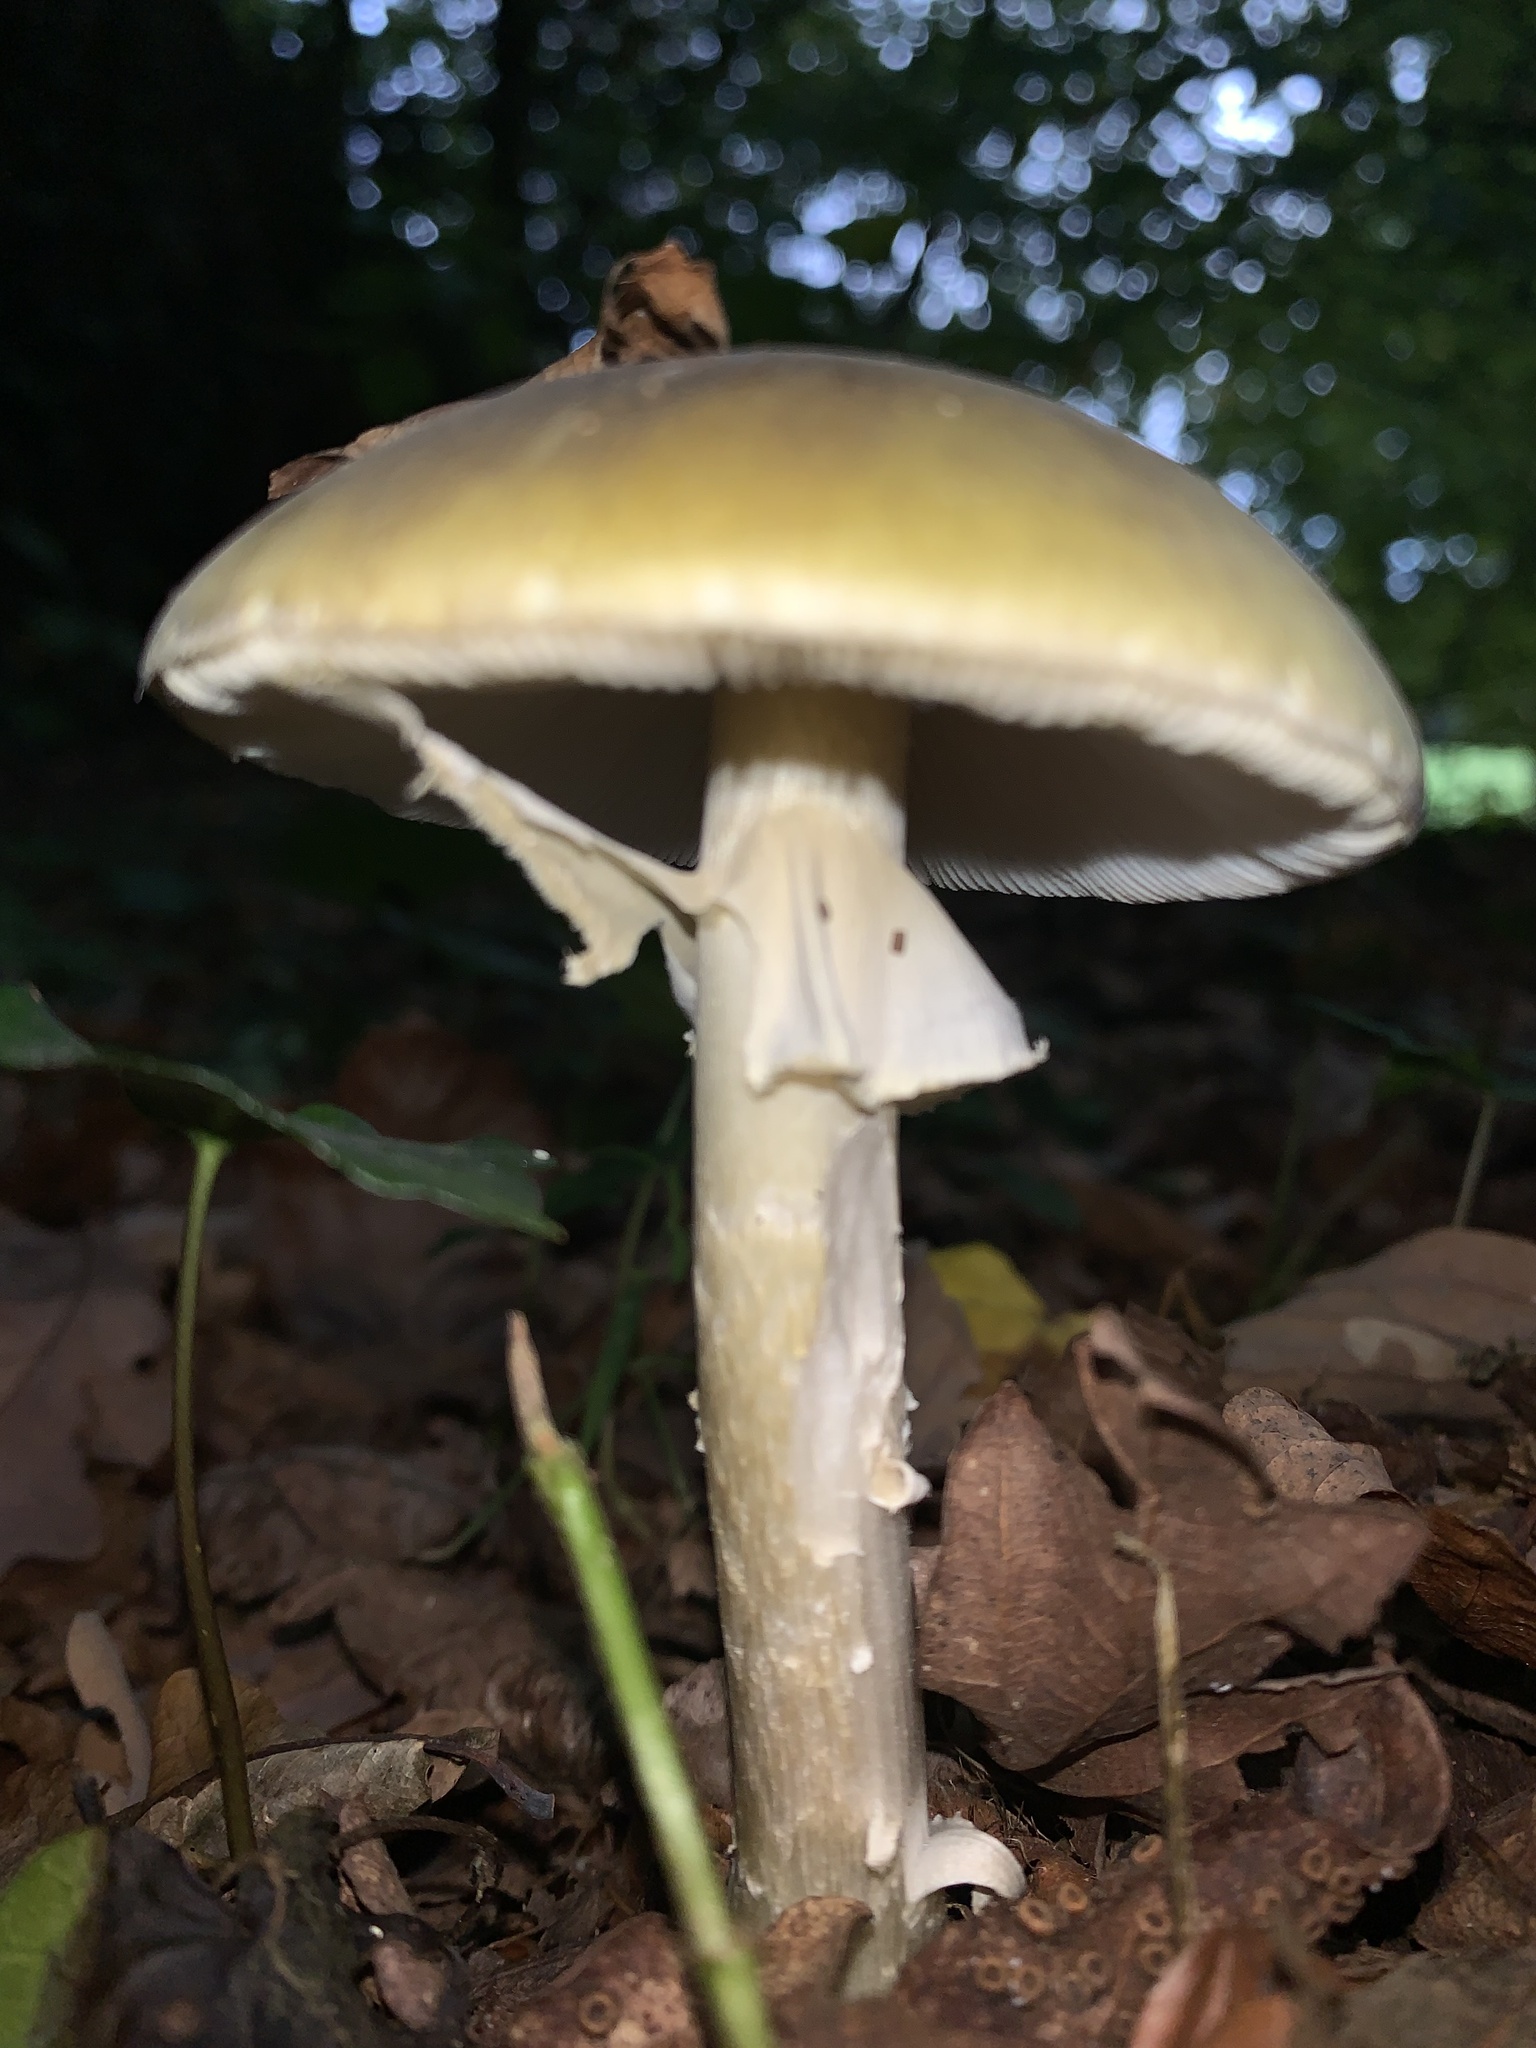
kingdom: Fungi
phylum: Basidiomycota
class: Agaricomycetes
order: Agaricales
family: Amanitaceae
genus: Amanita
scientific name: Amanita phalloides
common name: Death cap
